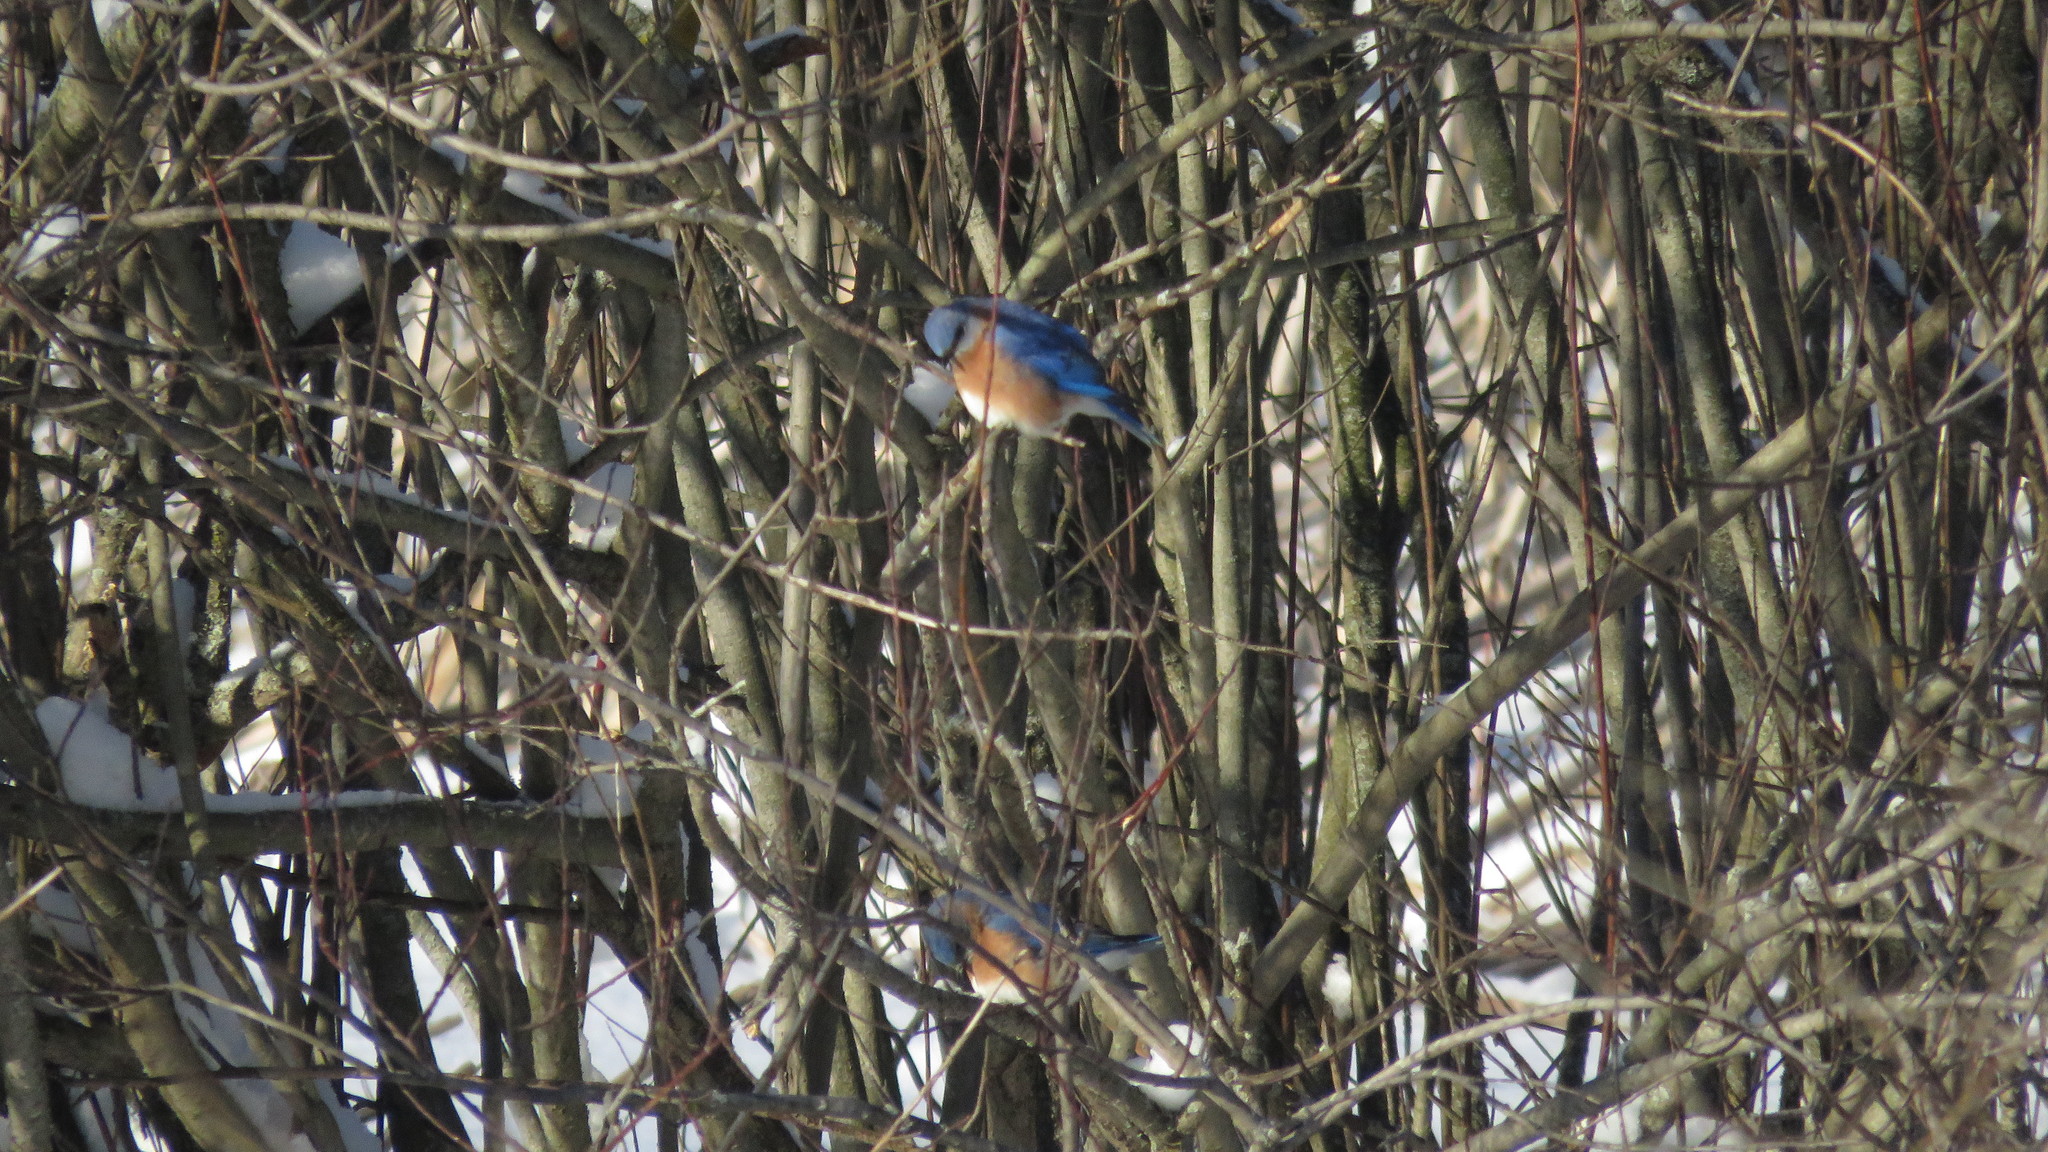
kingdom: Animalia
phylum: Chordata
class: Aves
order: Passeriformes
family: Turdidae
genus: Sialia
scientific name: Sialia sialis
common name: Eastern bluebird
